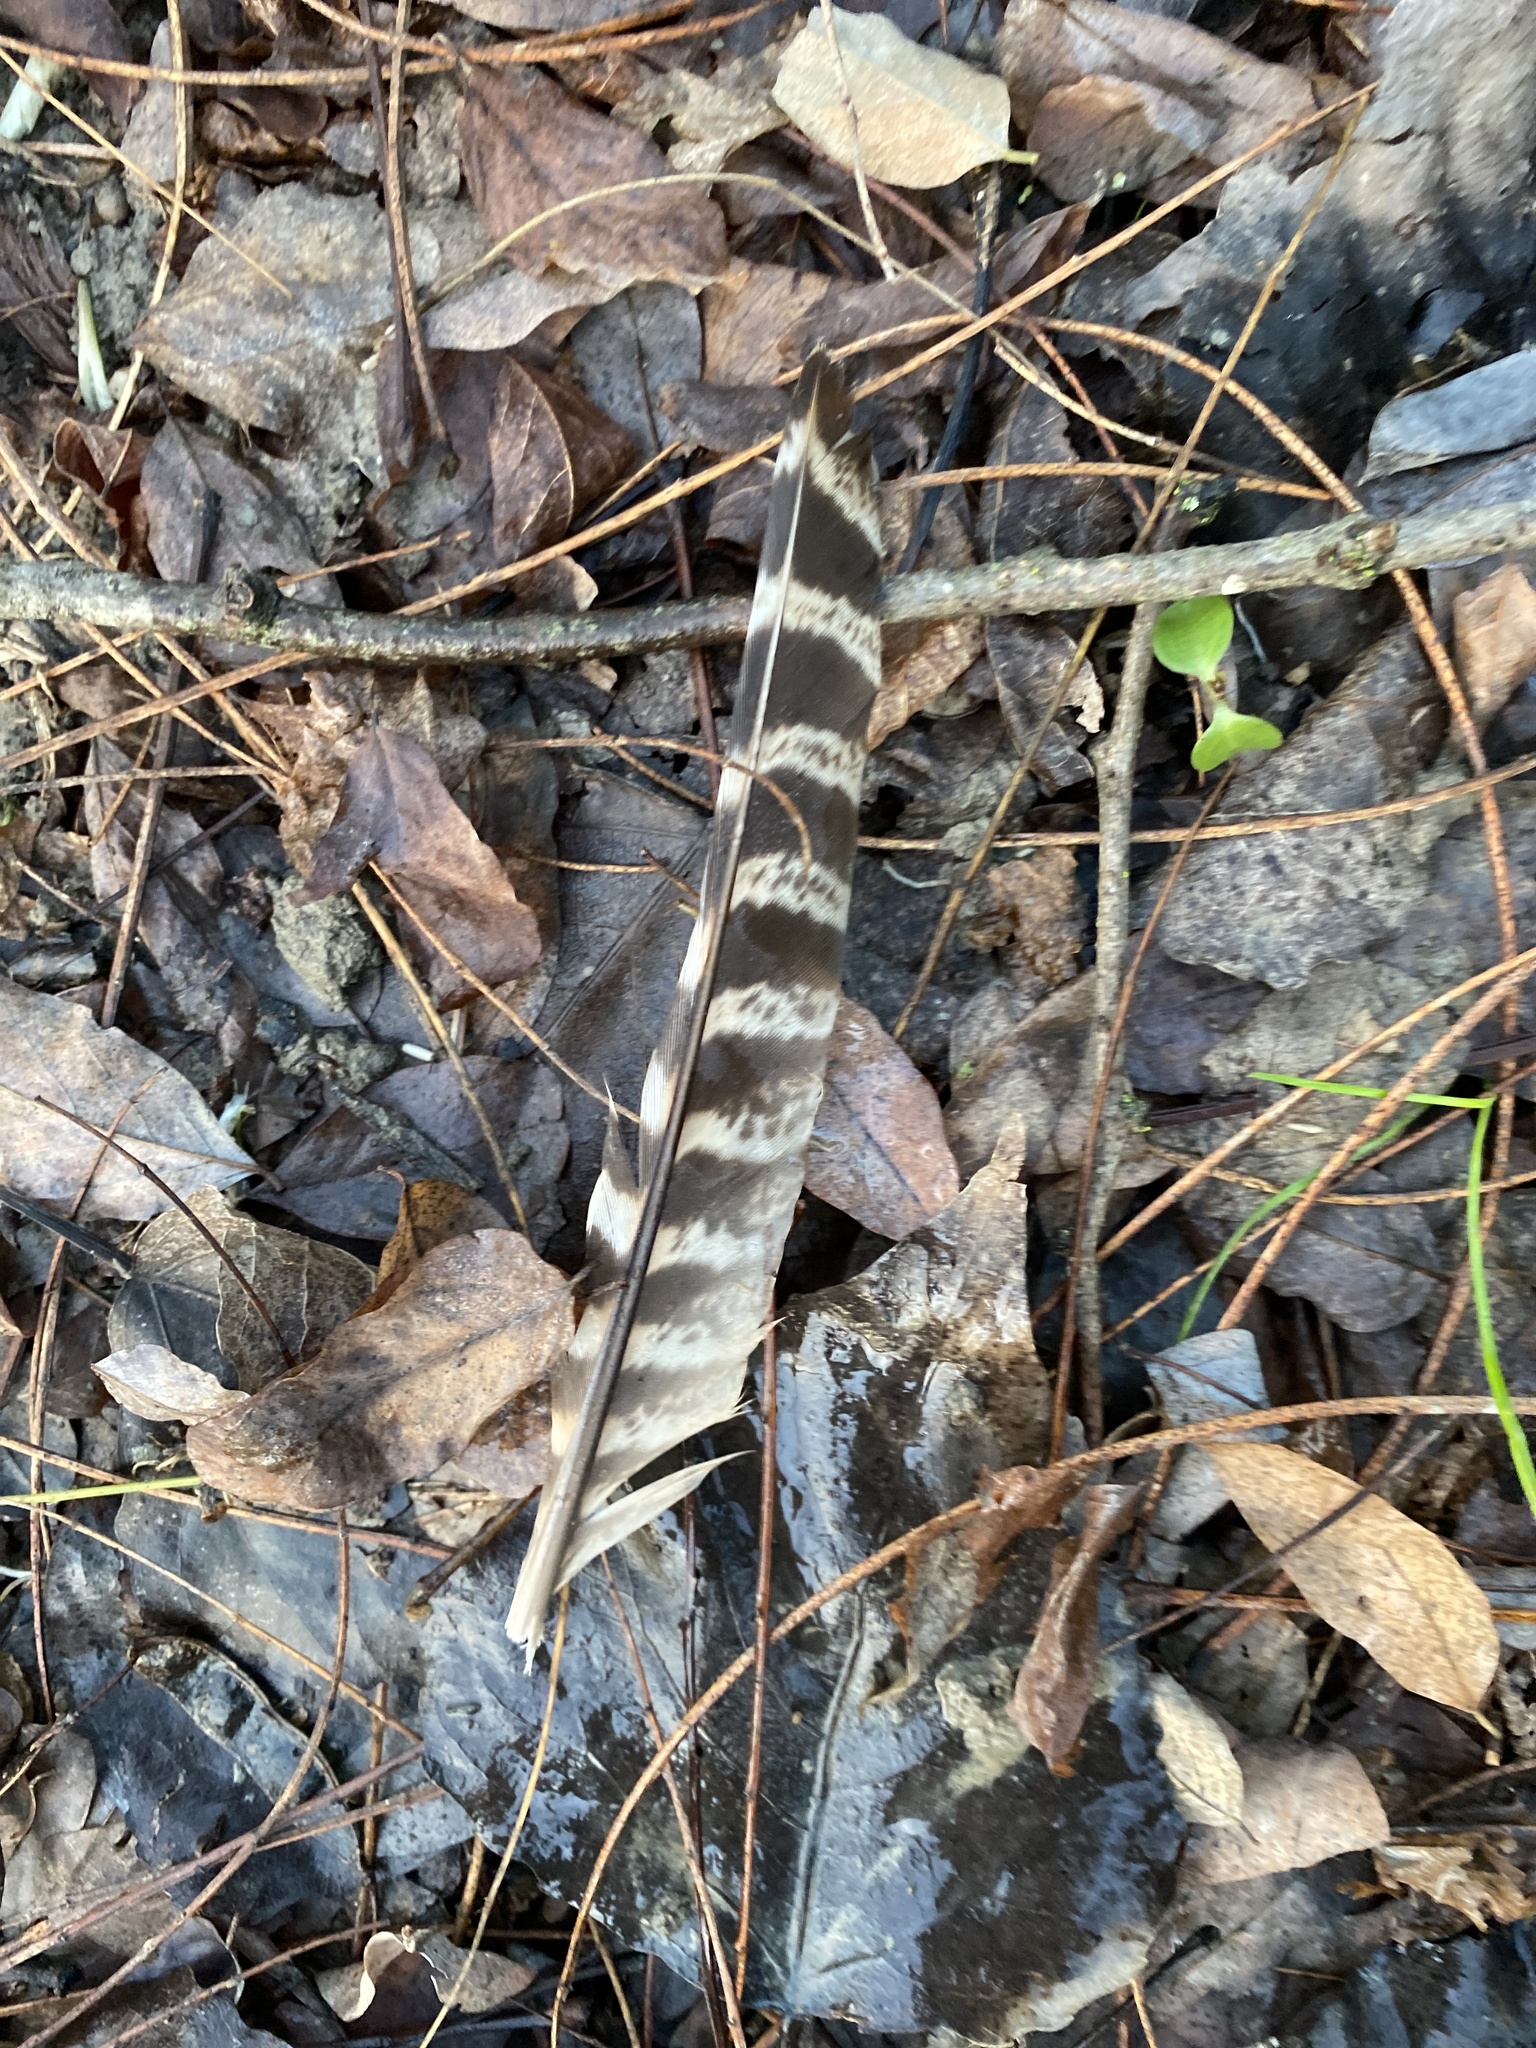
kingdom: Animalia
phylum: Chordata
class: Aves
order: Galliformes
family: Phasianidae
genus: Phasianus
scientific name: Phasianus colchicus
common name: Common pheasant
